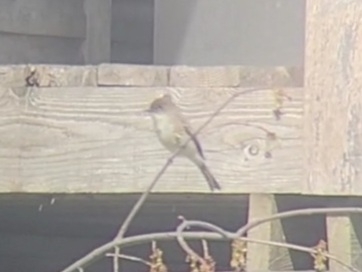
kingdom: Animalia
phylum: Chordata
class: Aves
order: Passeriformes
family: Tyrannidae
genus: Sayornis
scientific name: Sayornis phoebe
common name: Eastern phoebe
